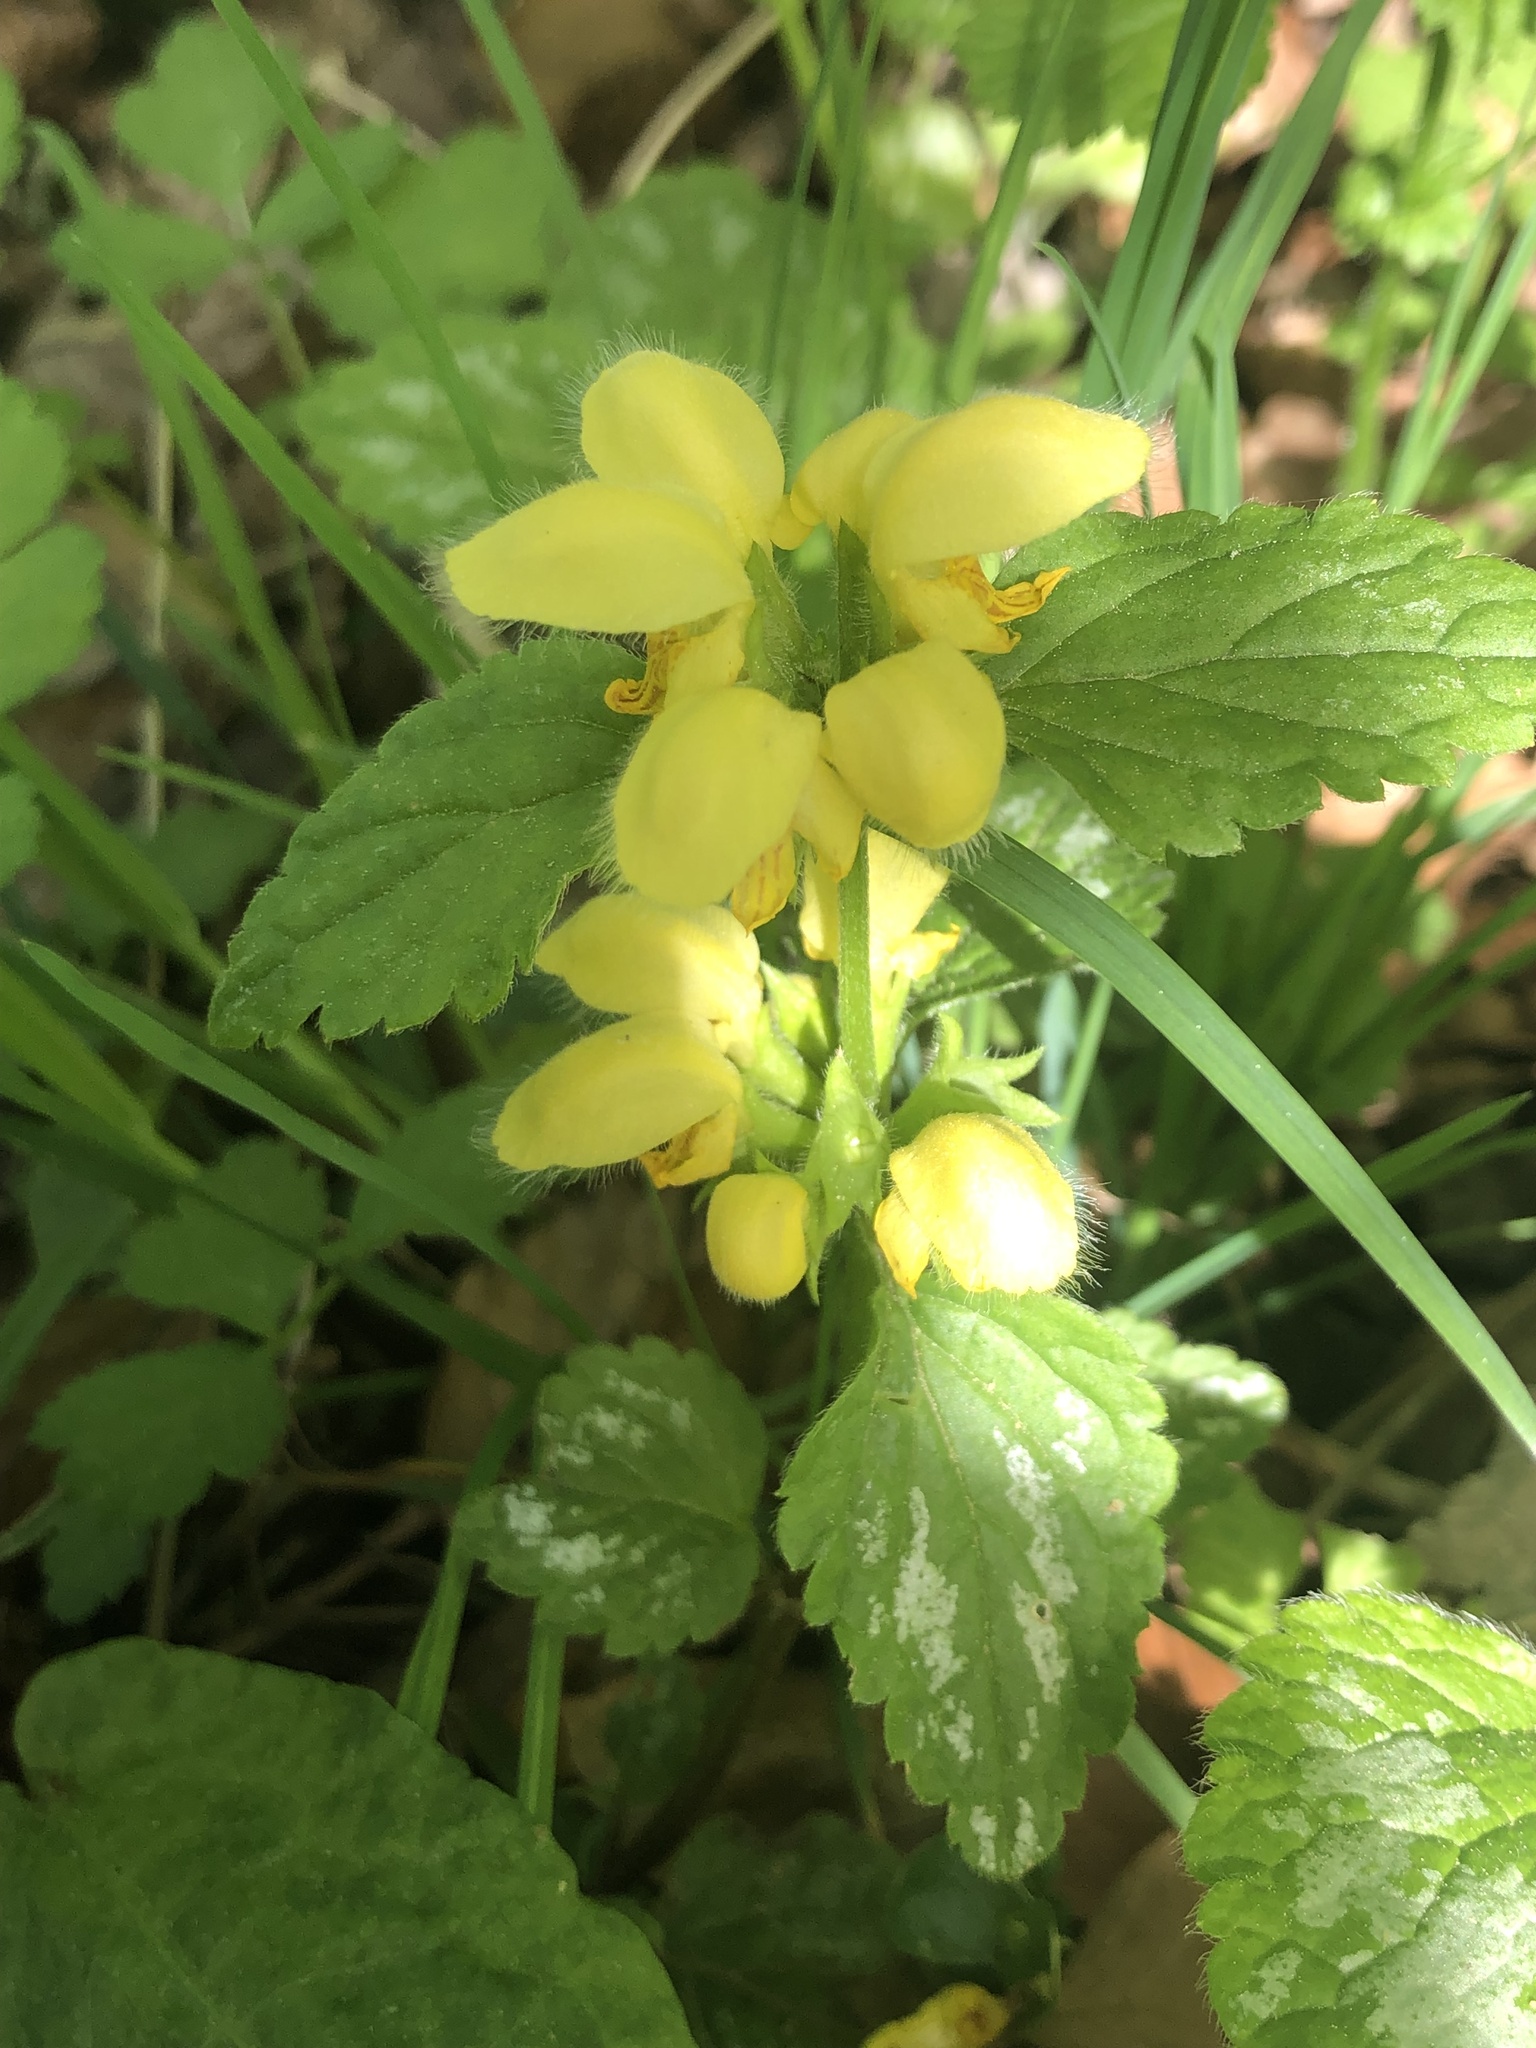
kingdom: Plantae
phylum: Tracheophyta
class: Magnoliopsida
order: Lamiales
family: Lamiaceae
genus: Lamium
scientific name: Lamium galeobdolon
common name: Yellow archangel
